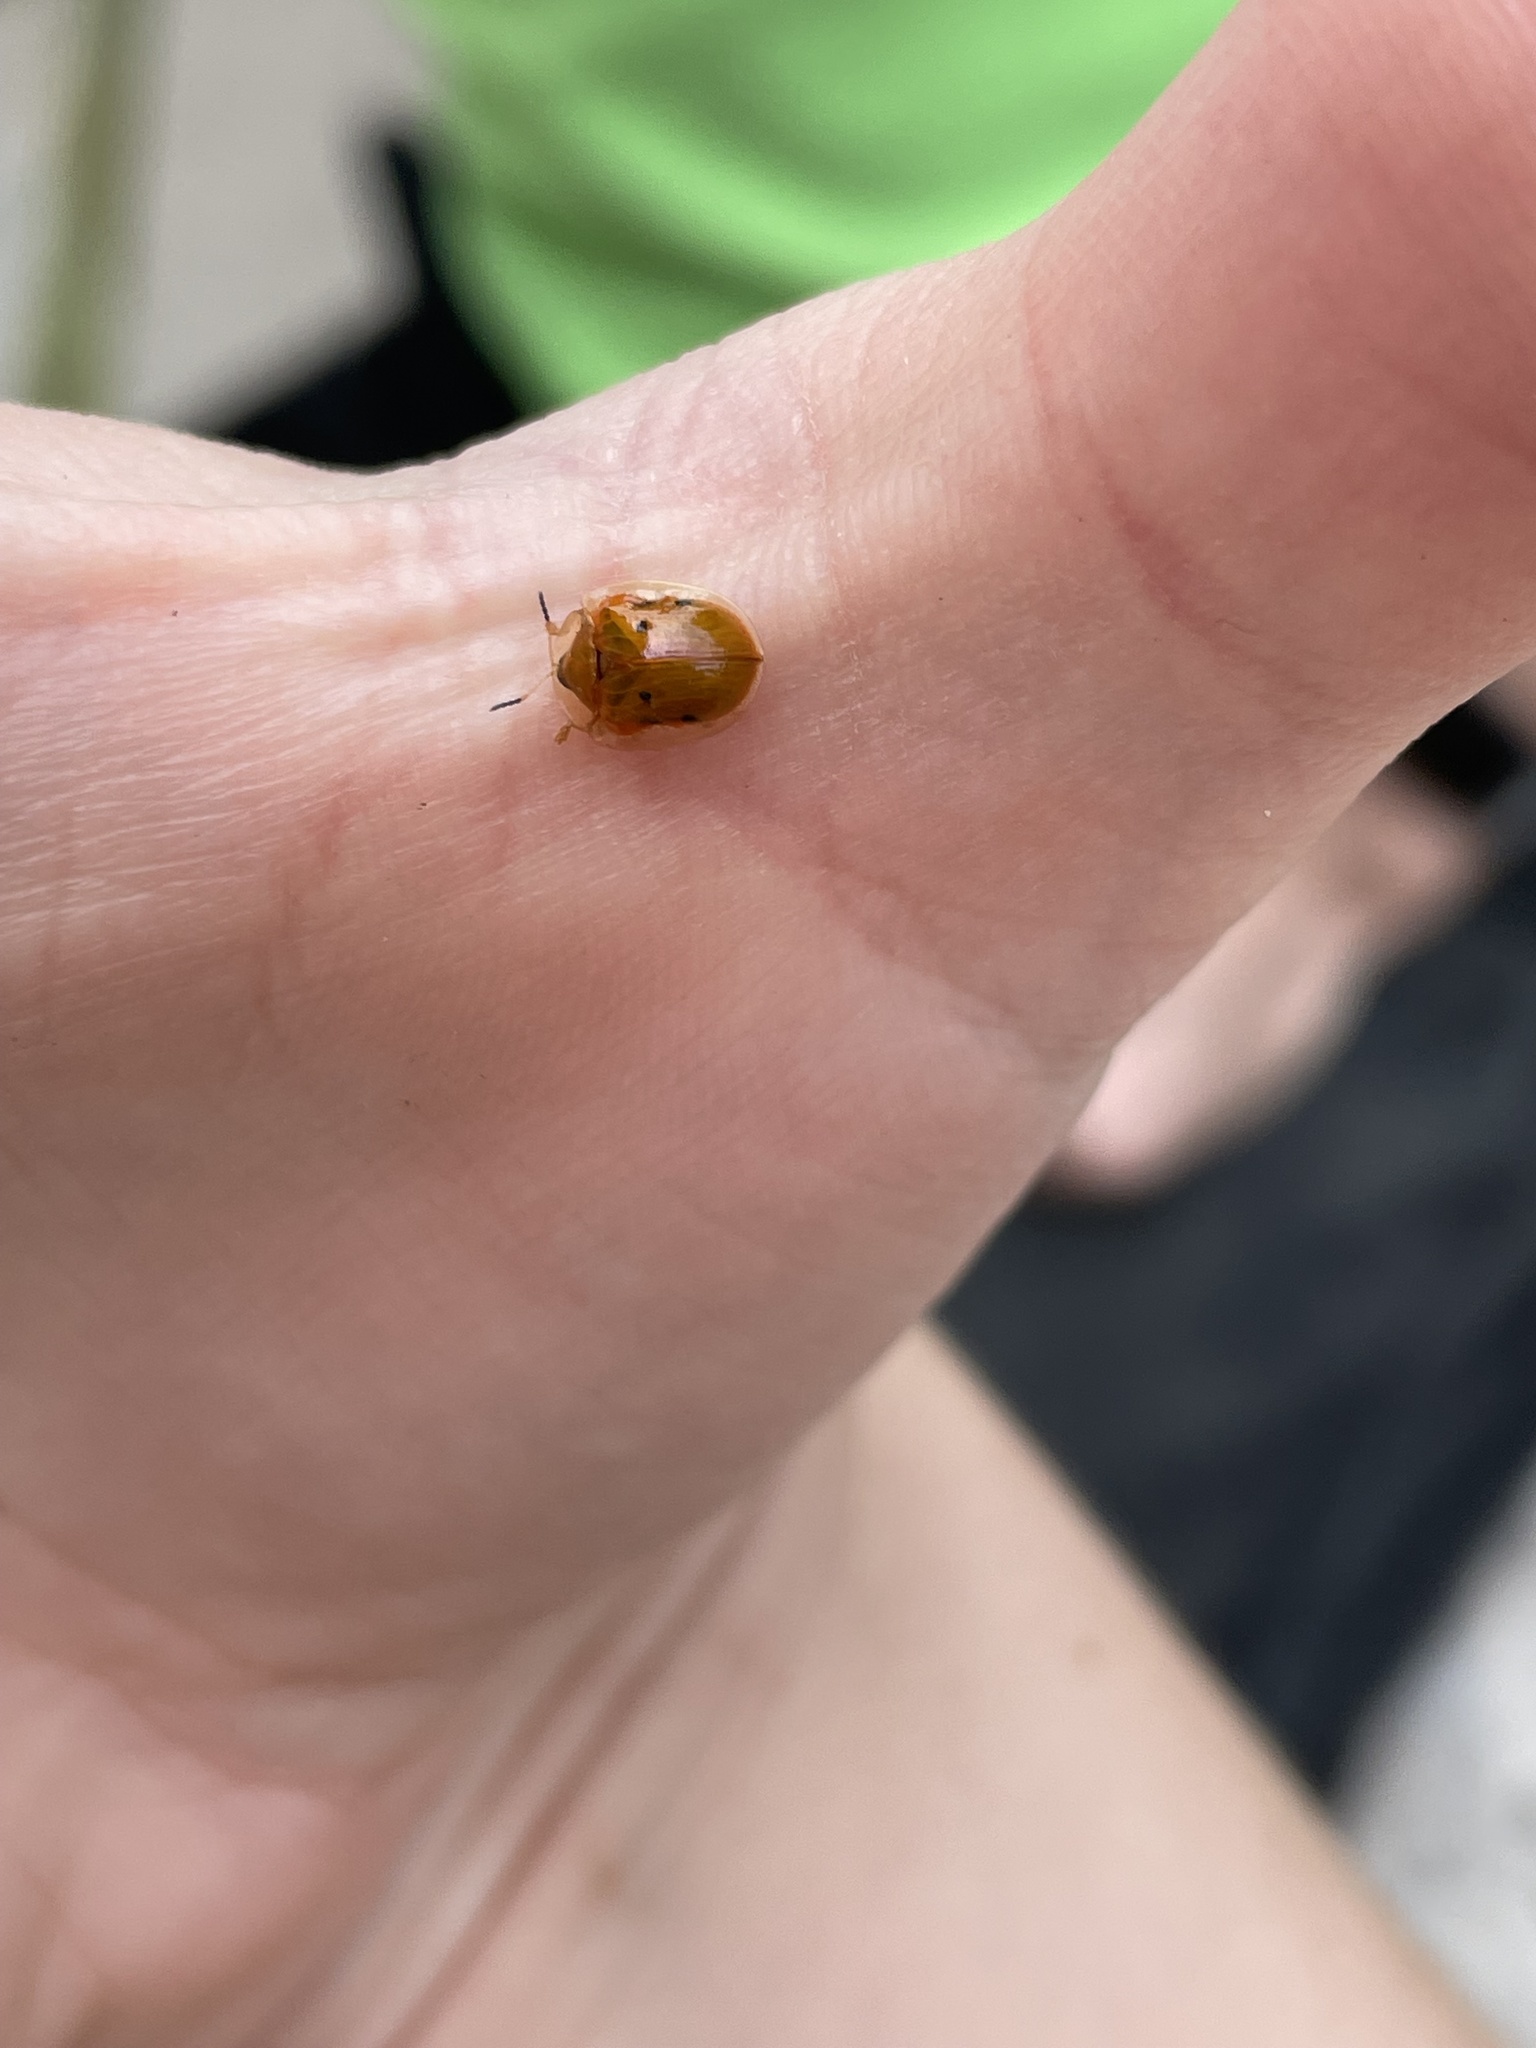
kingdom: Animalia
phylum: Arthropoda
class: Insecta
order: Coleoptera
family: Chrysomelidae
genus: Charidotella
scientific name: Charidotella sexpunctata
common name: Golden tortoise beetle
